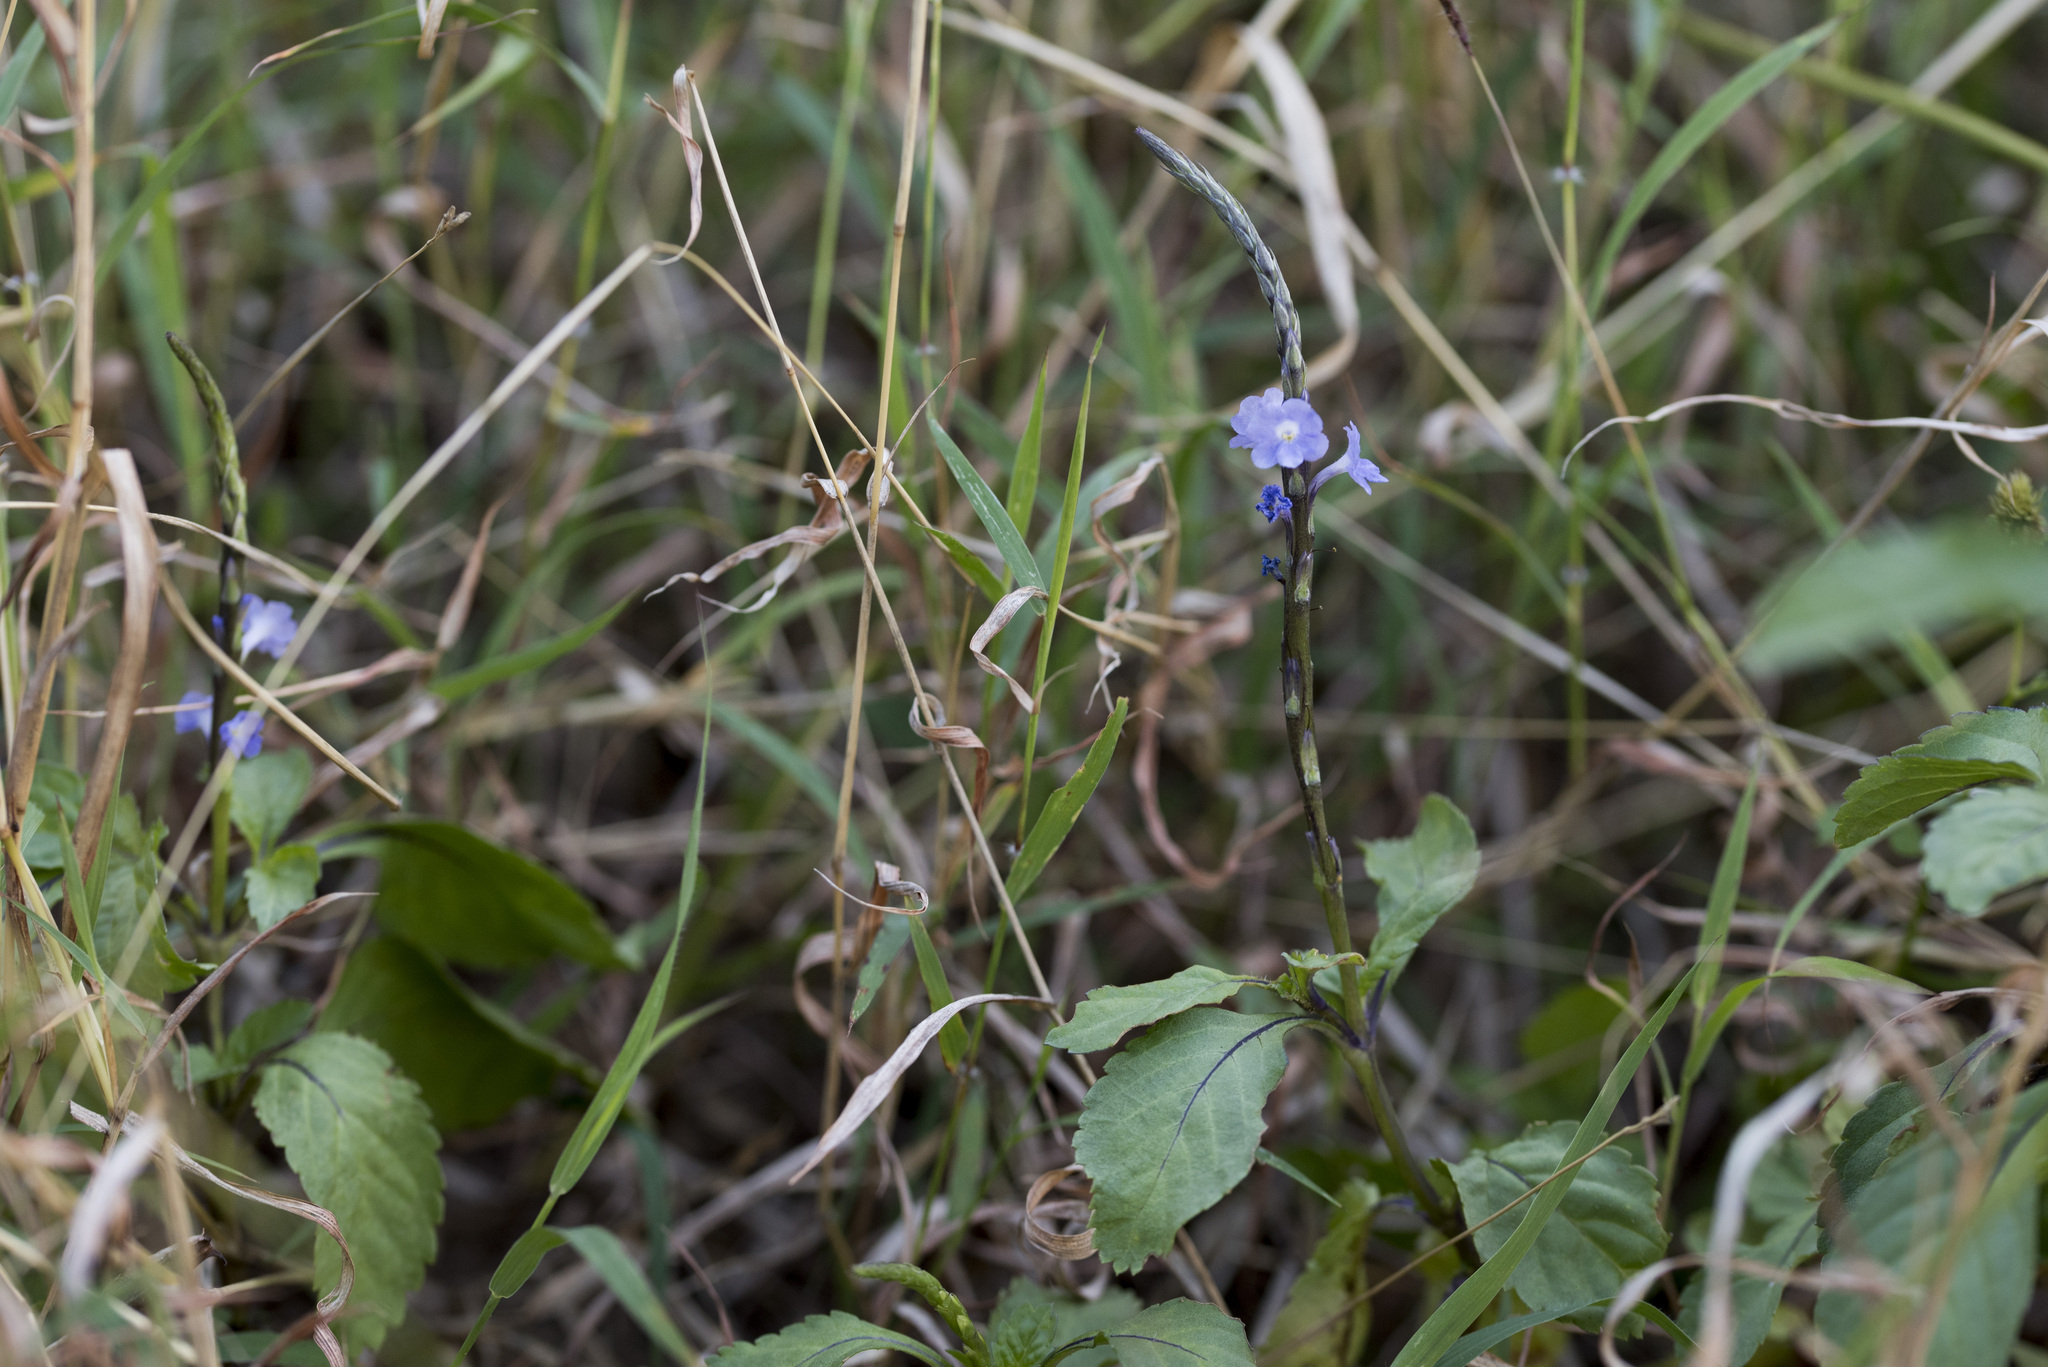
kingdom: Plantae
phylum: Tracheophyta
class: Magnoliopsida
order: Lamiales
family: Verbenaceae
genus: Stachytarpheta
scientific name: Stachytarpheta jamaicensis
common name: Light-blue snakeweed
